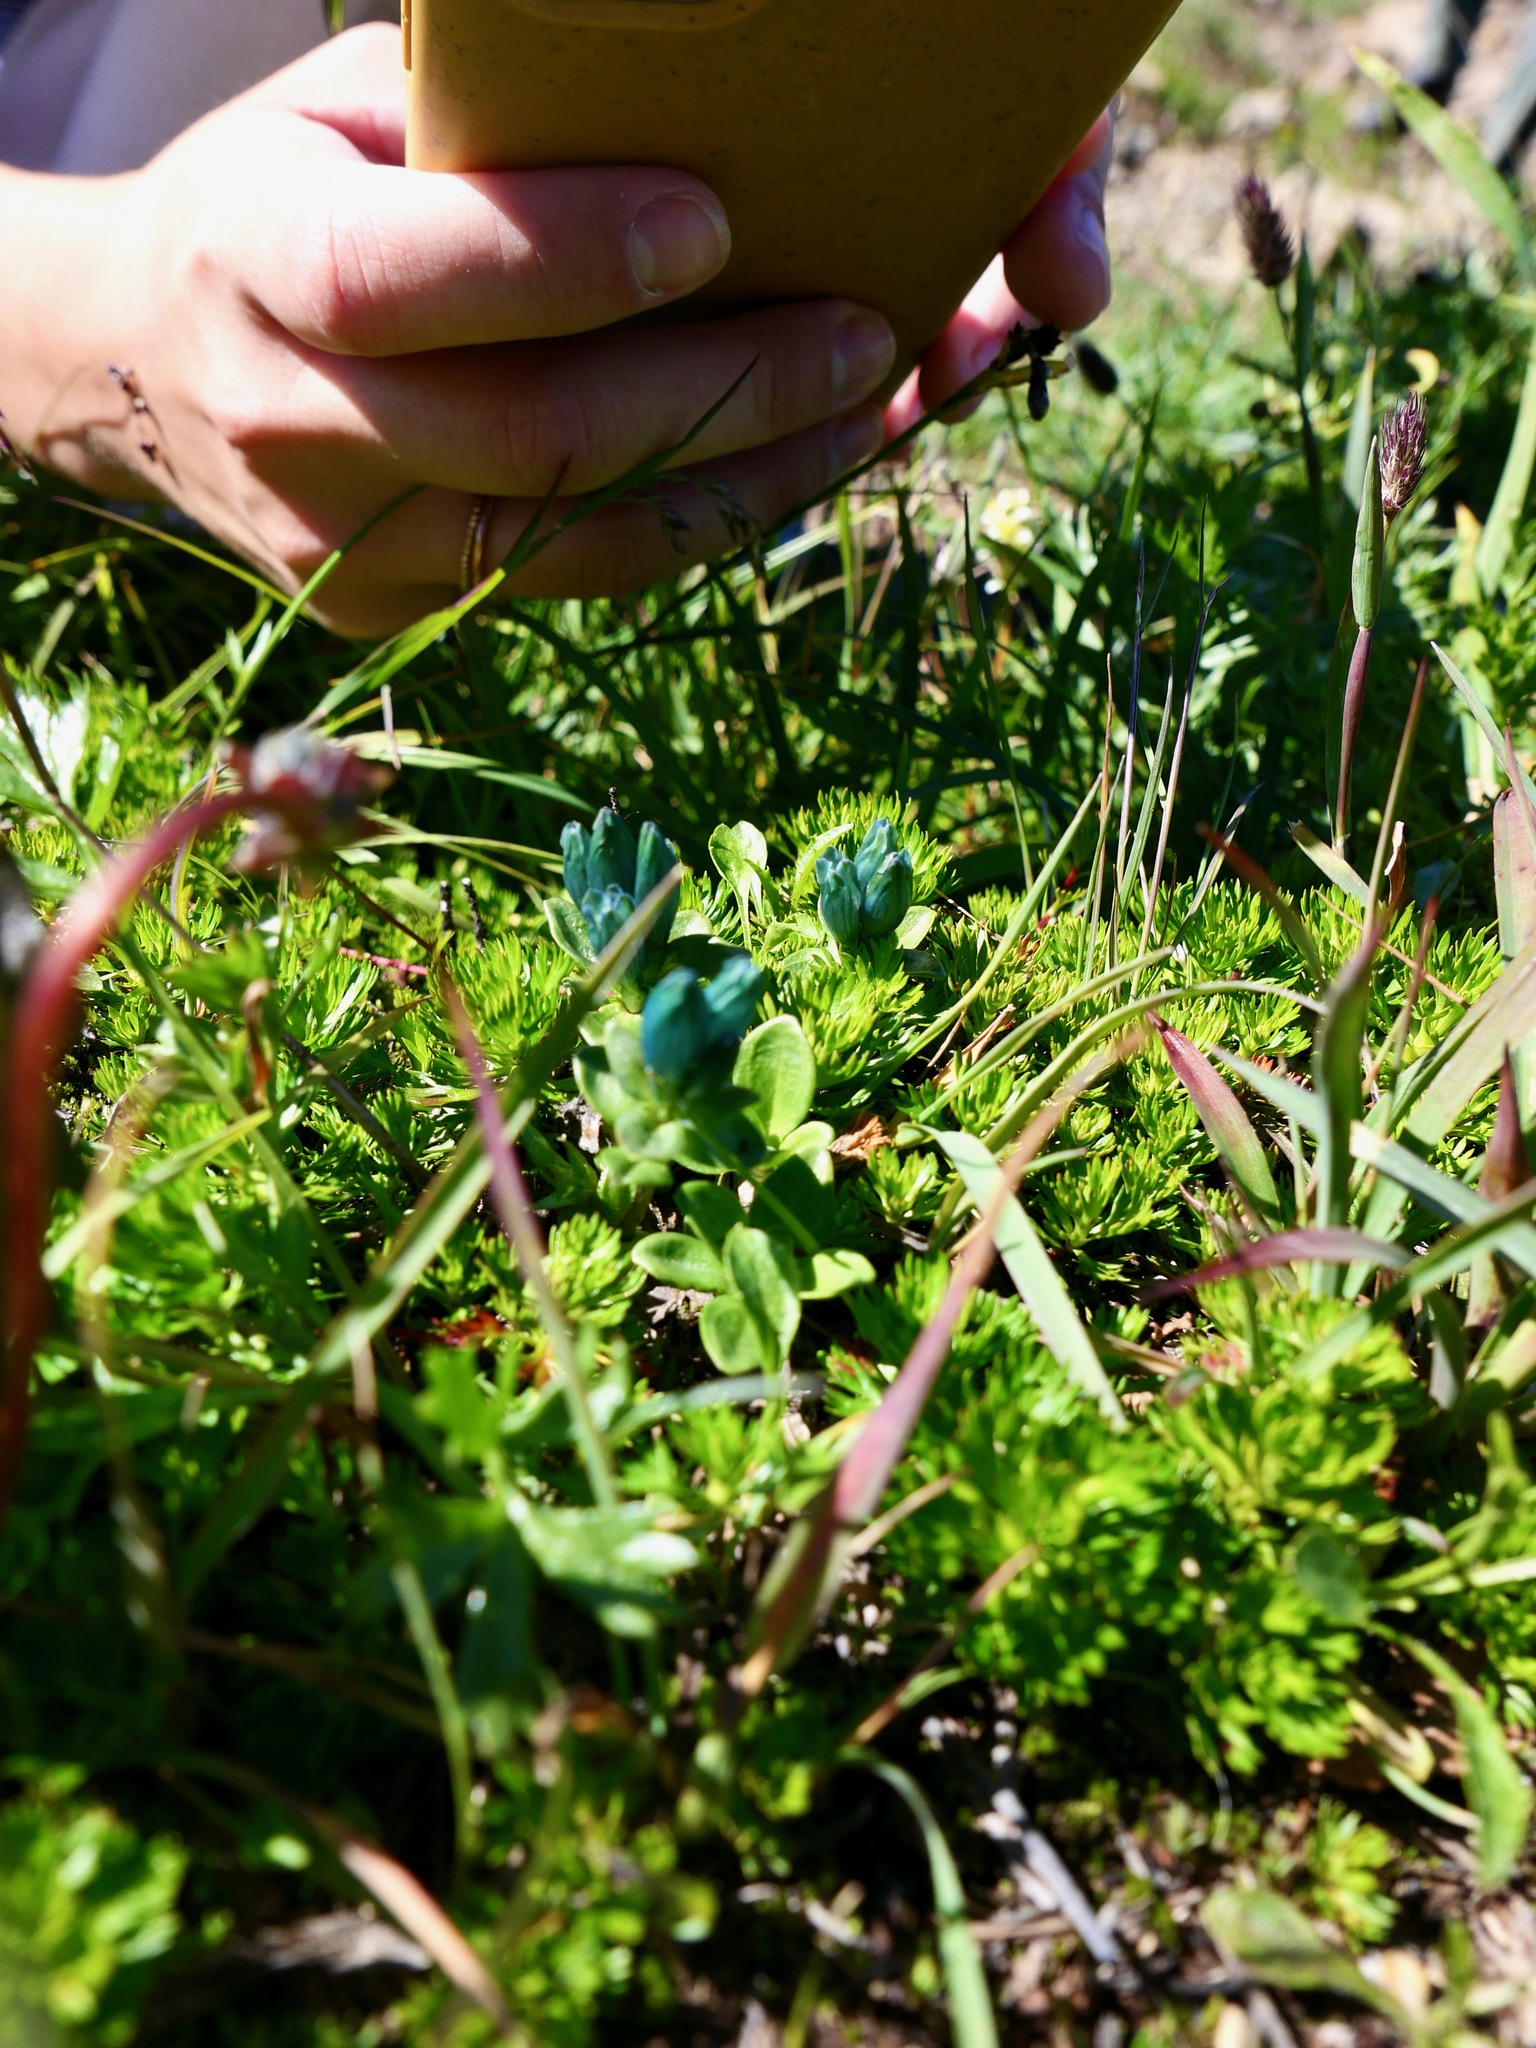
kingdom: Plantae
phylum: Tracheophyta
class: Magnoliopsida
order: Gentianales
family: Gentianaceae
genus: Gentiana
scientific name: Gentiana glauca
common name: Alpine gentian
